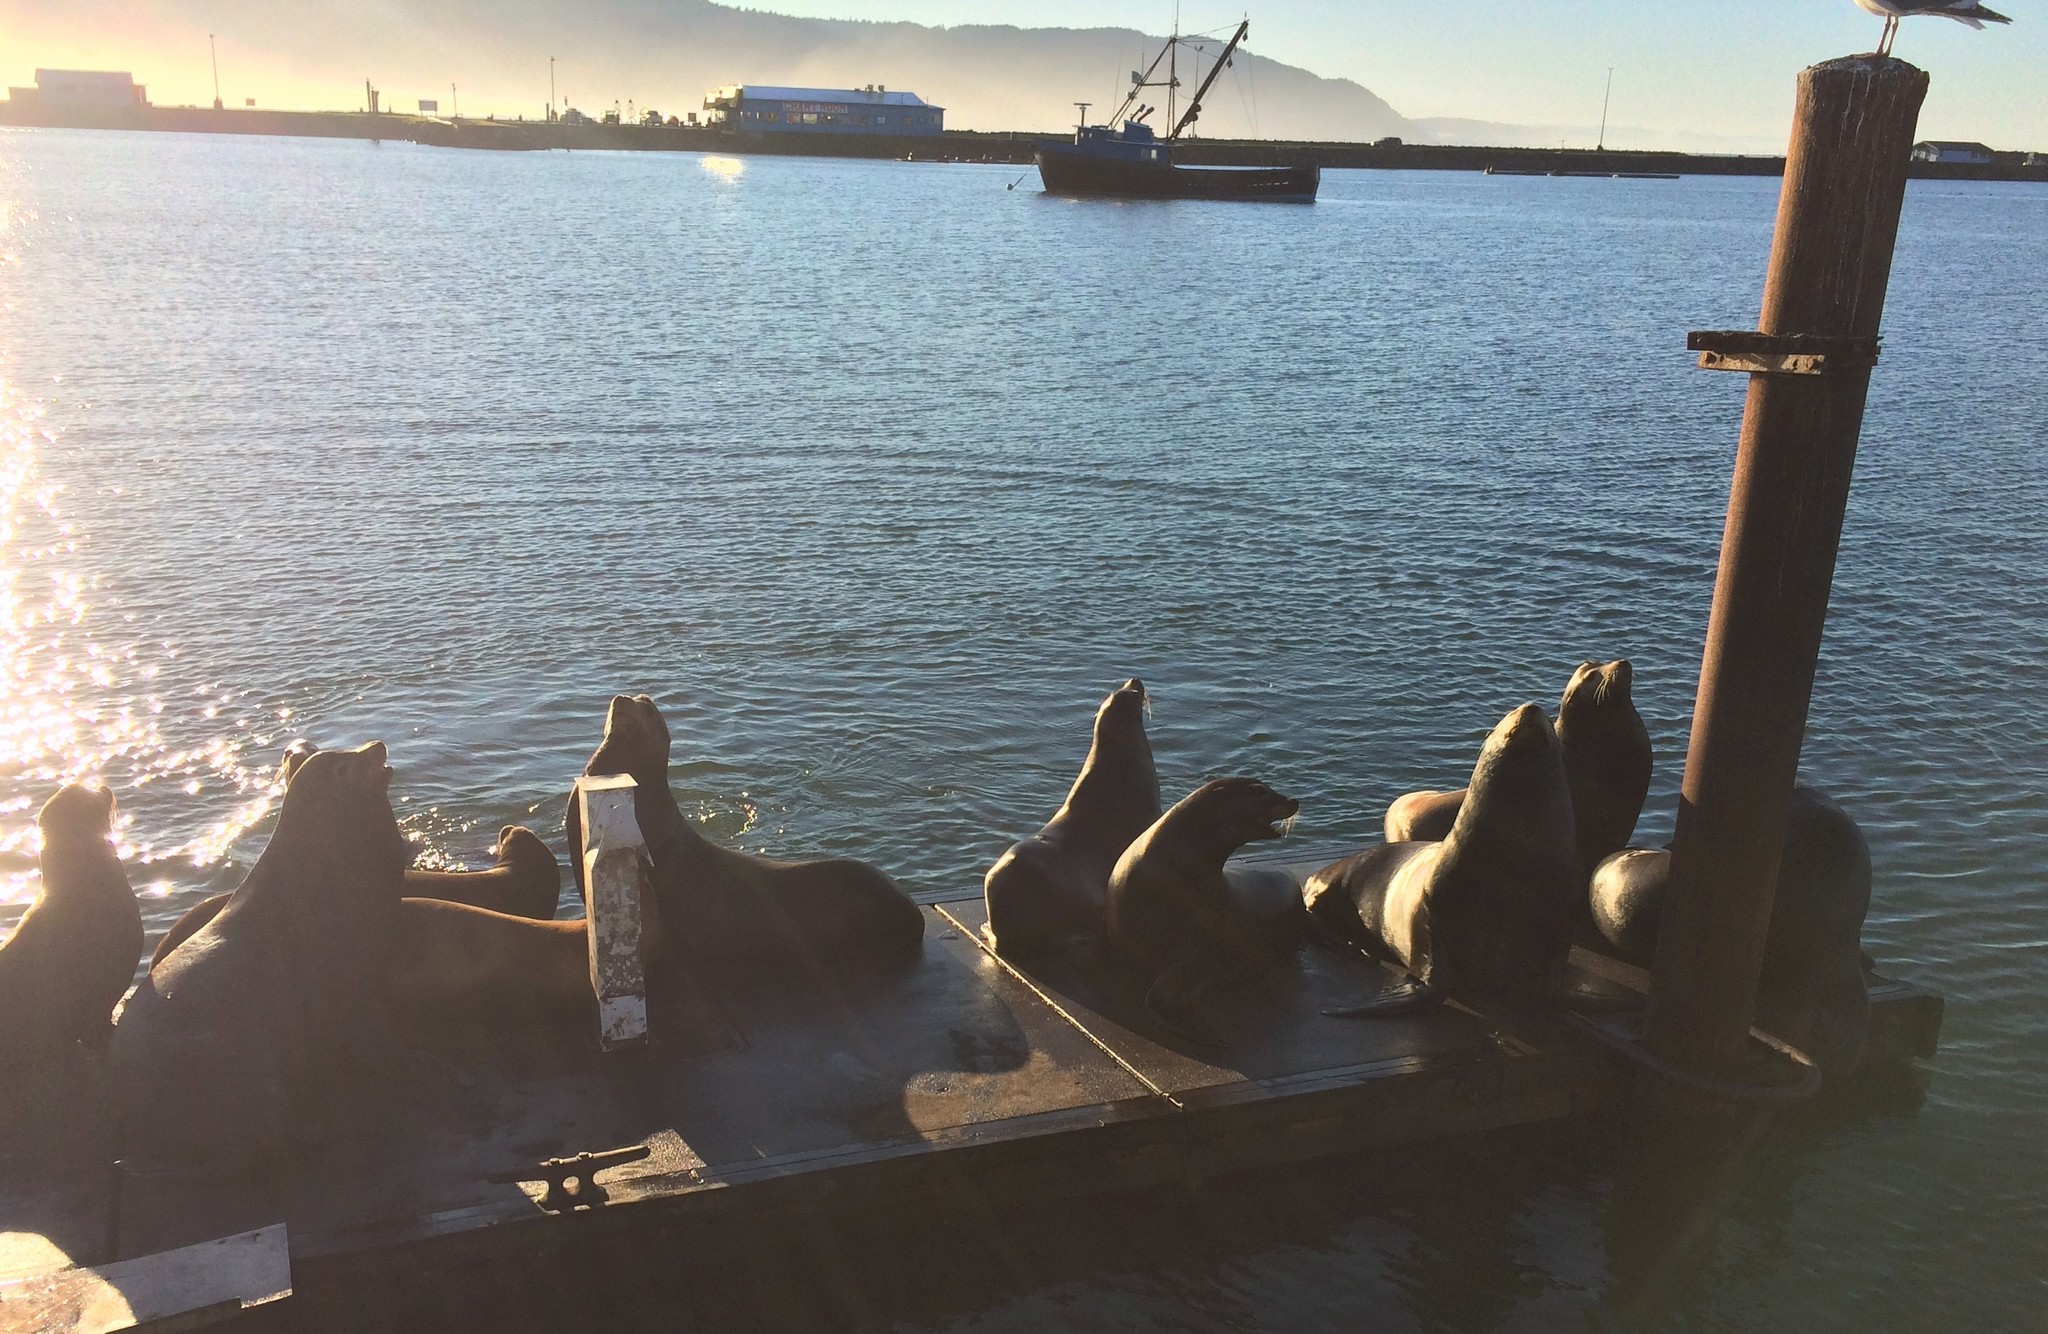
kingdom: Animalia
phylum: Chordata
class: Mammalia
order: Carnivora
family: Otariidae
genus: Zalophus
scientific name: Zalophus californianus
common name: California sea lion
